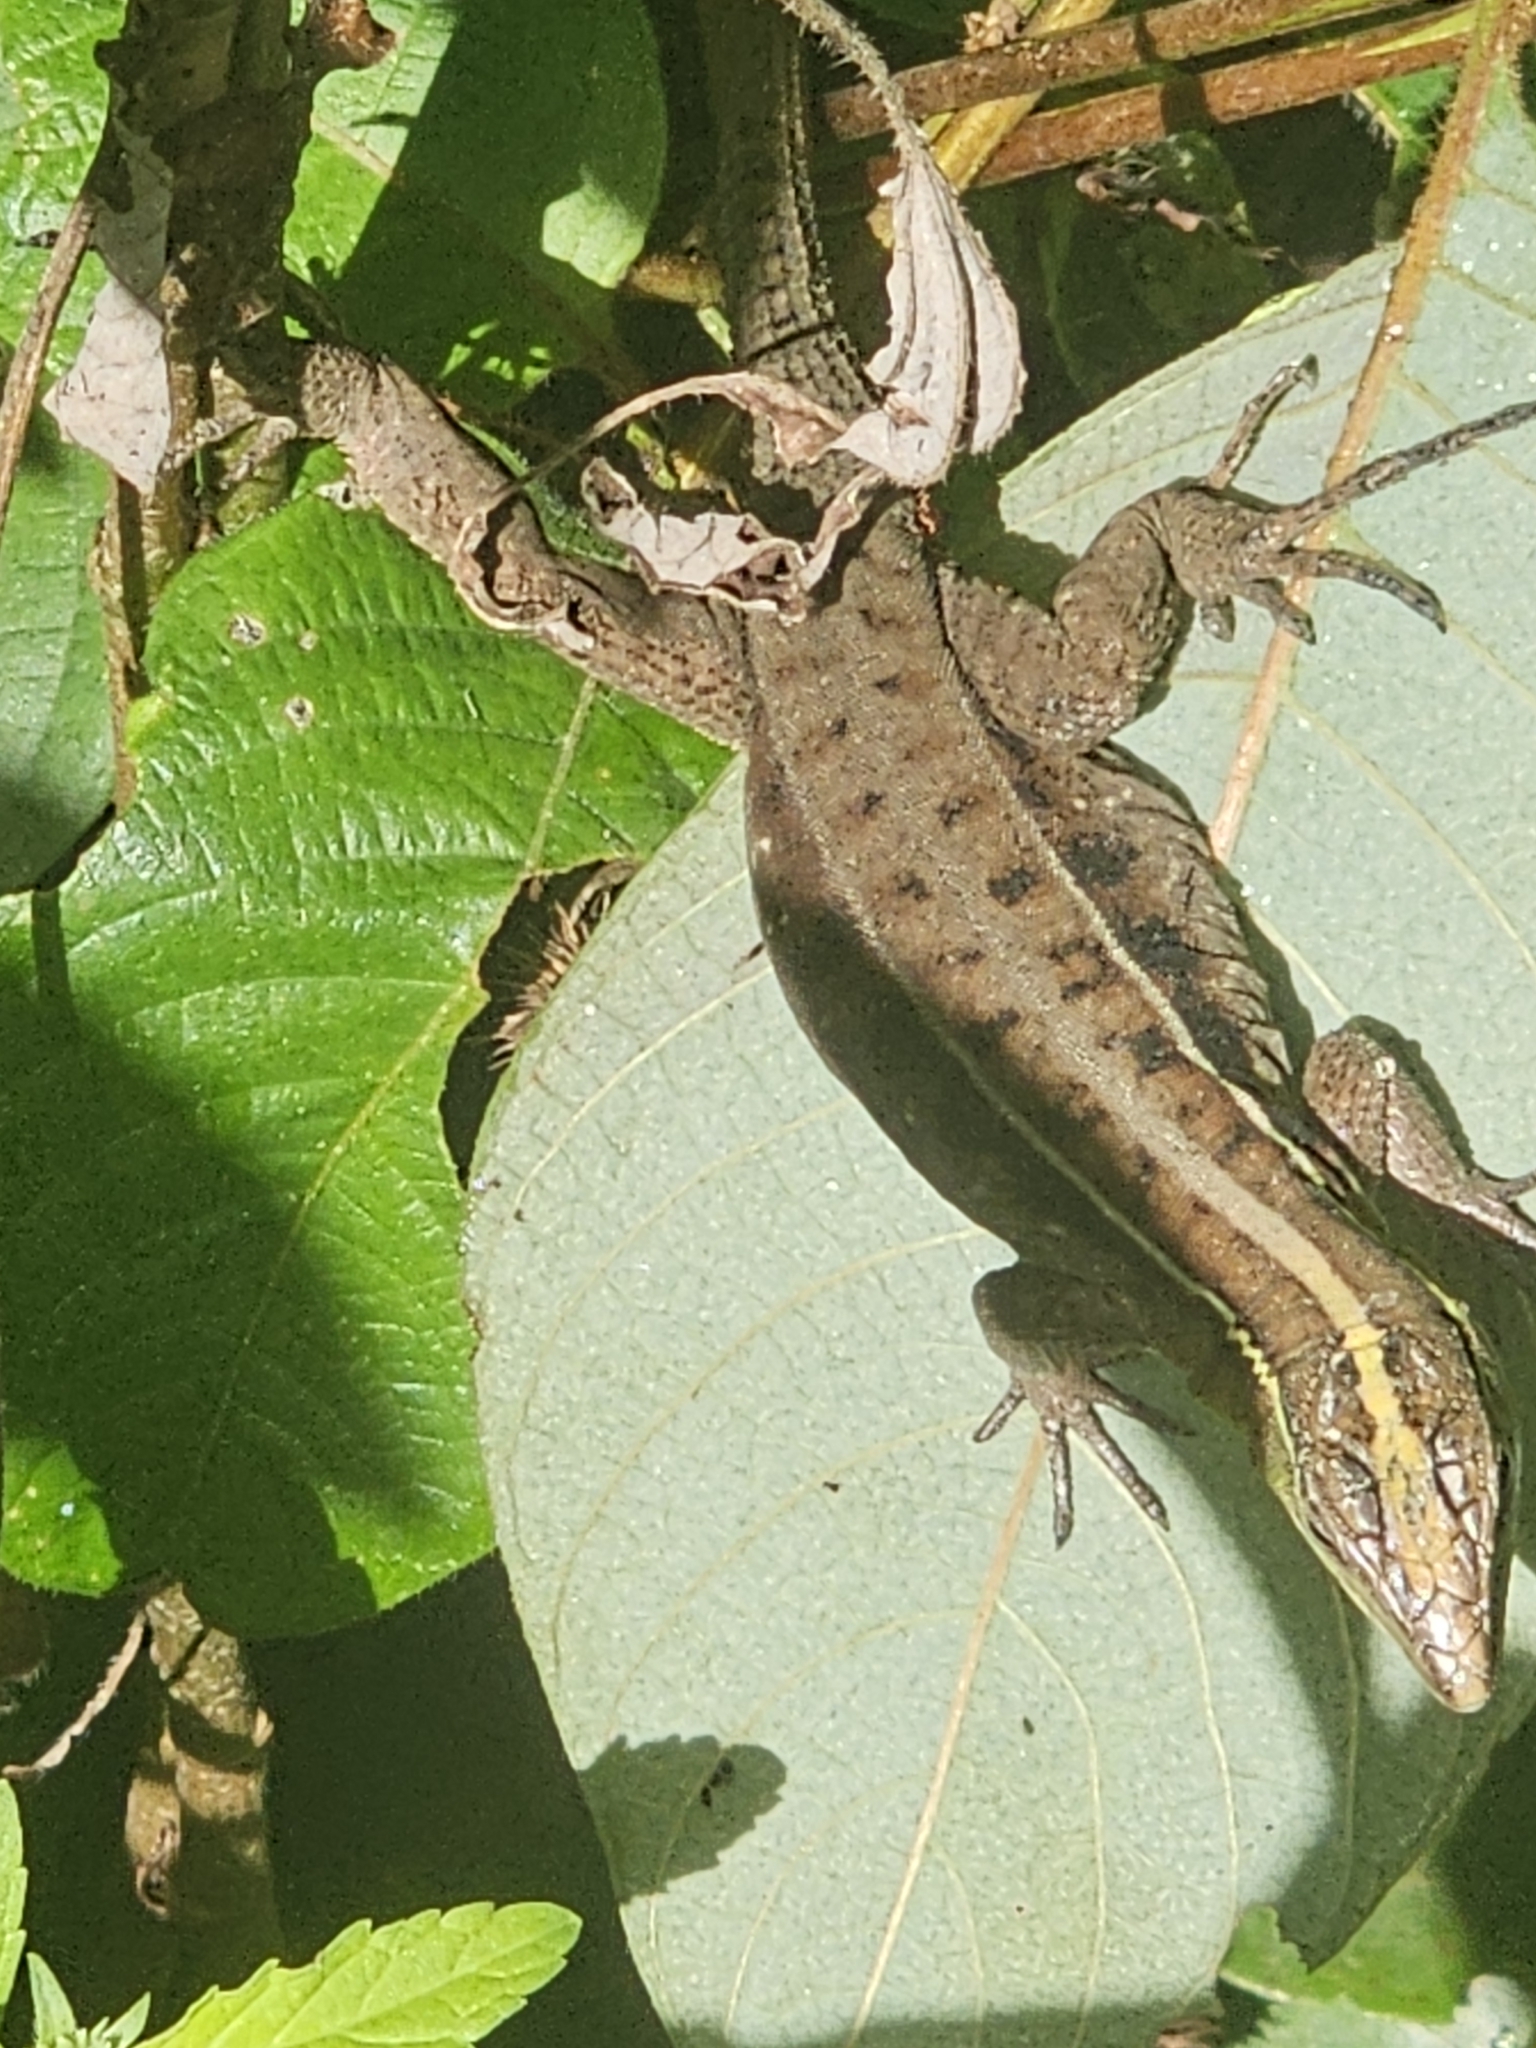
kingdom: Animalia
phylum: Chordata
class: Squamata
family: Teiidae
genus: Kentropyx
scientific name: Kentropyx calcarata
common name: Striped forest whiptail
